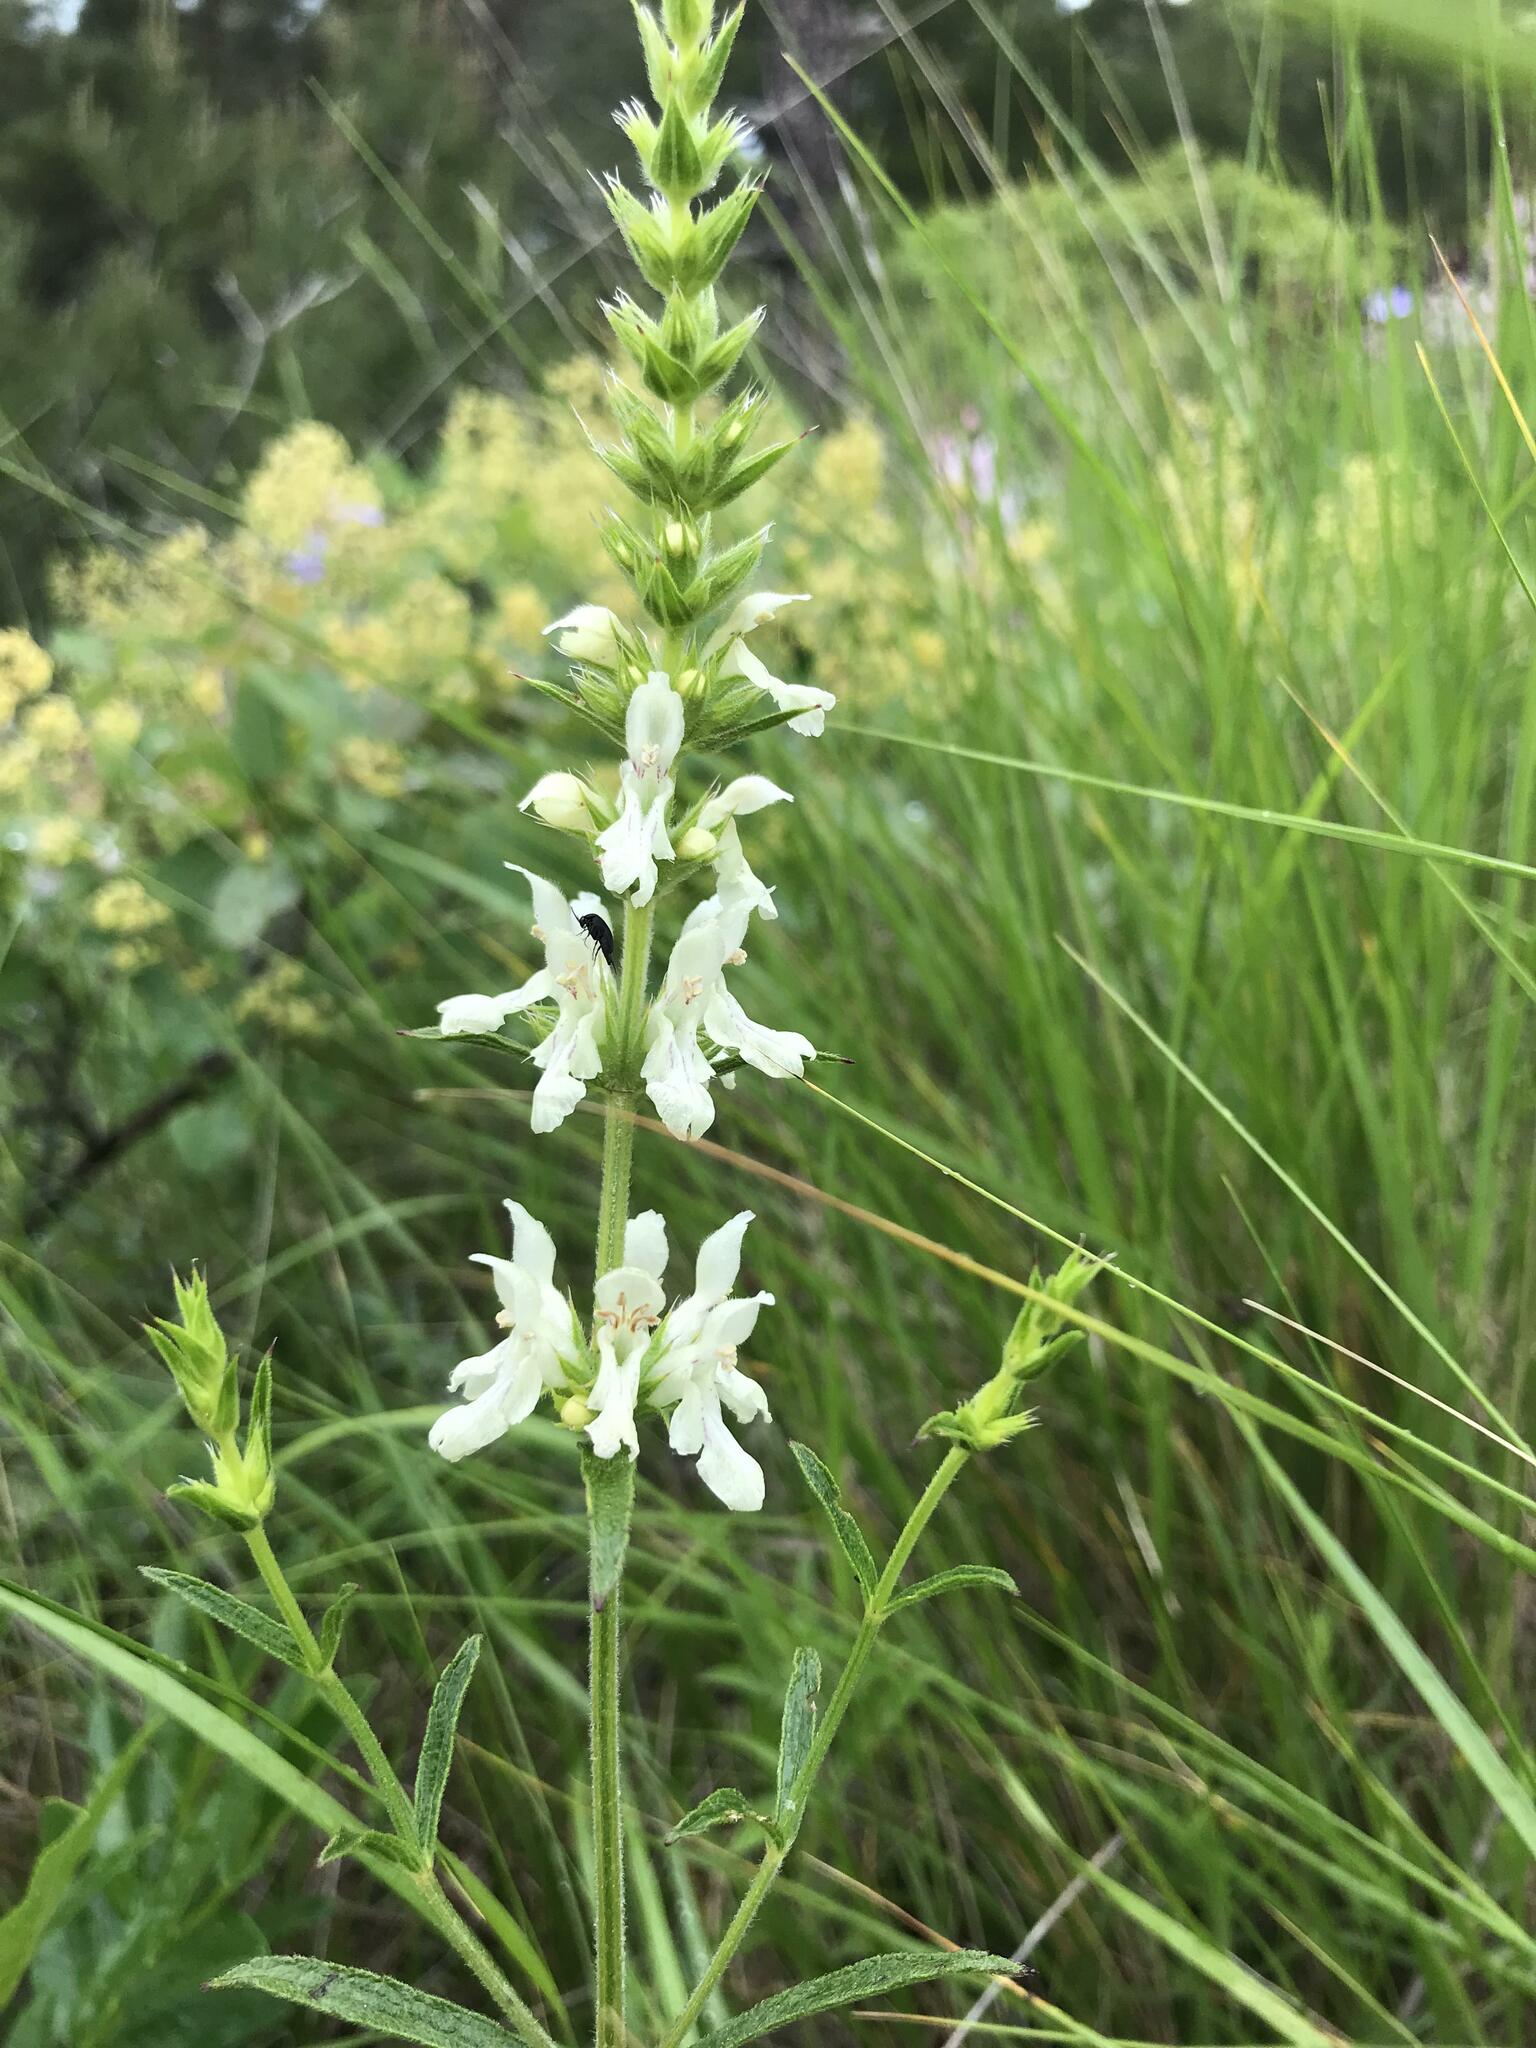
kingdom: Plantae
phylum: Tracheophyta
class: Magnoliopsida
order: Lamiales
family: Lamiaceae
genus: Stachys
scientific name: Stachys atherocalyx
